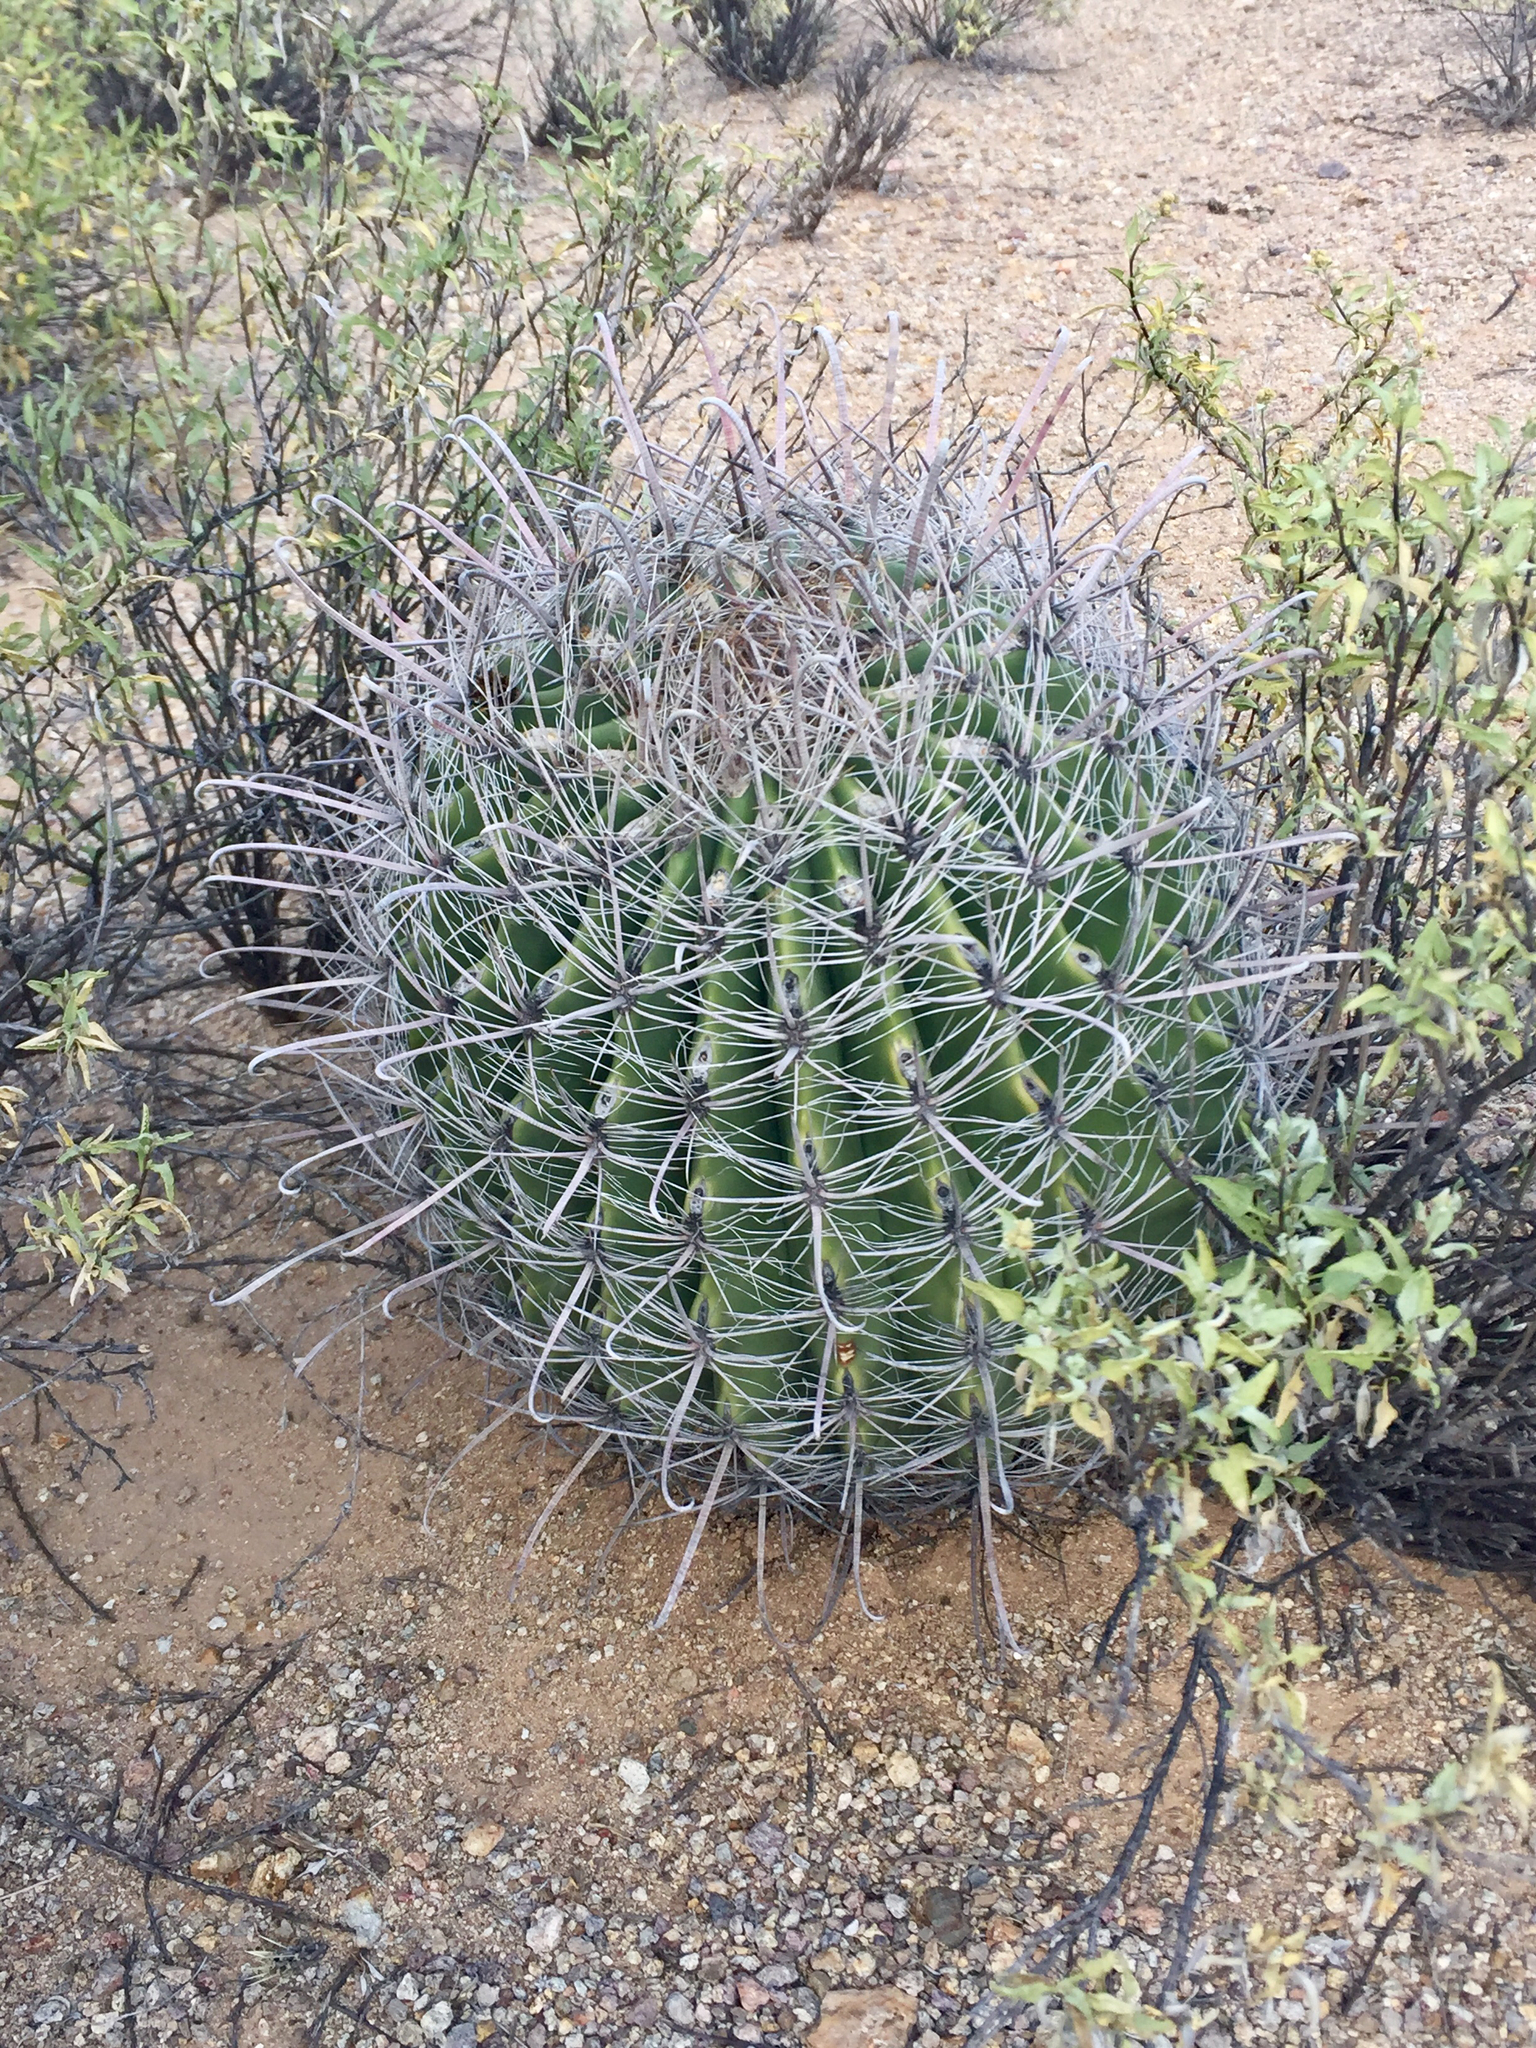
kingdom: Plantae
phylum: Tracheophyta
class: Magnoliopsida
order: Caryophyllales
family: Cactaceae
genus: Ferocactus
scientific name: Ferocactus wislizeni
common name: Candy barrel cactus
